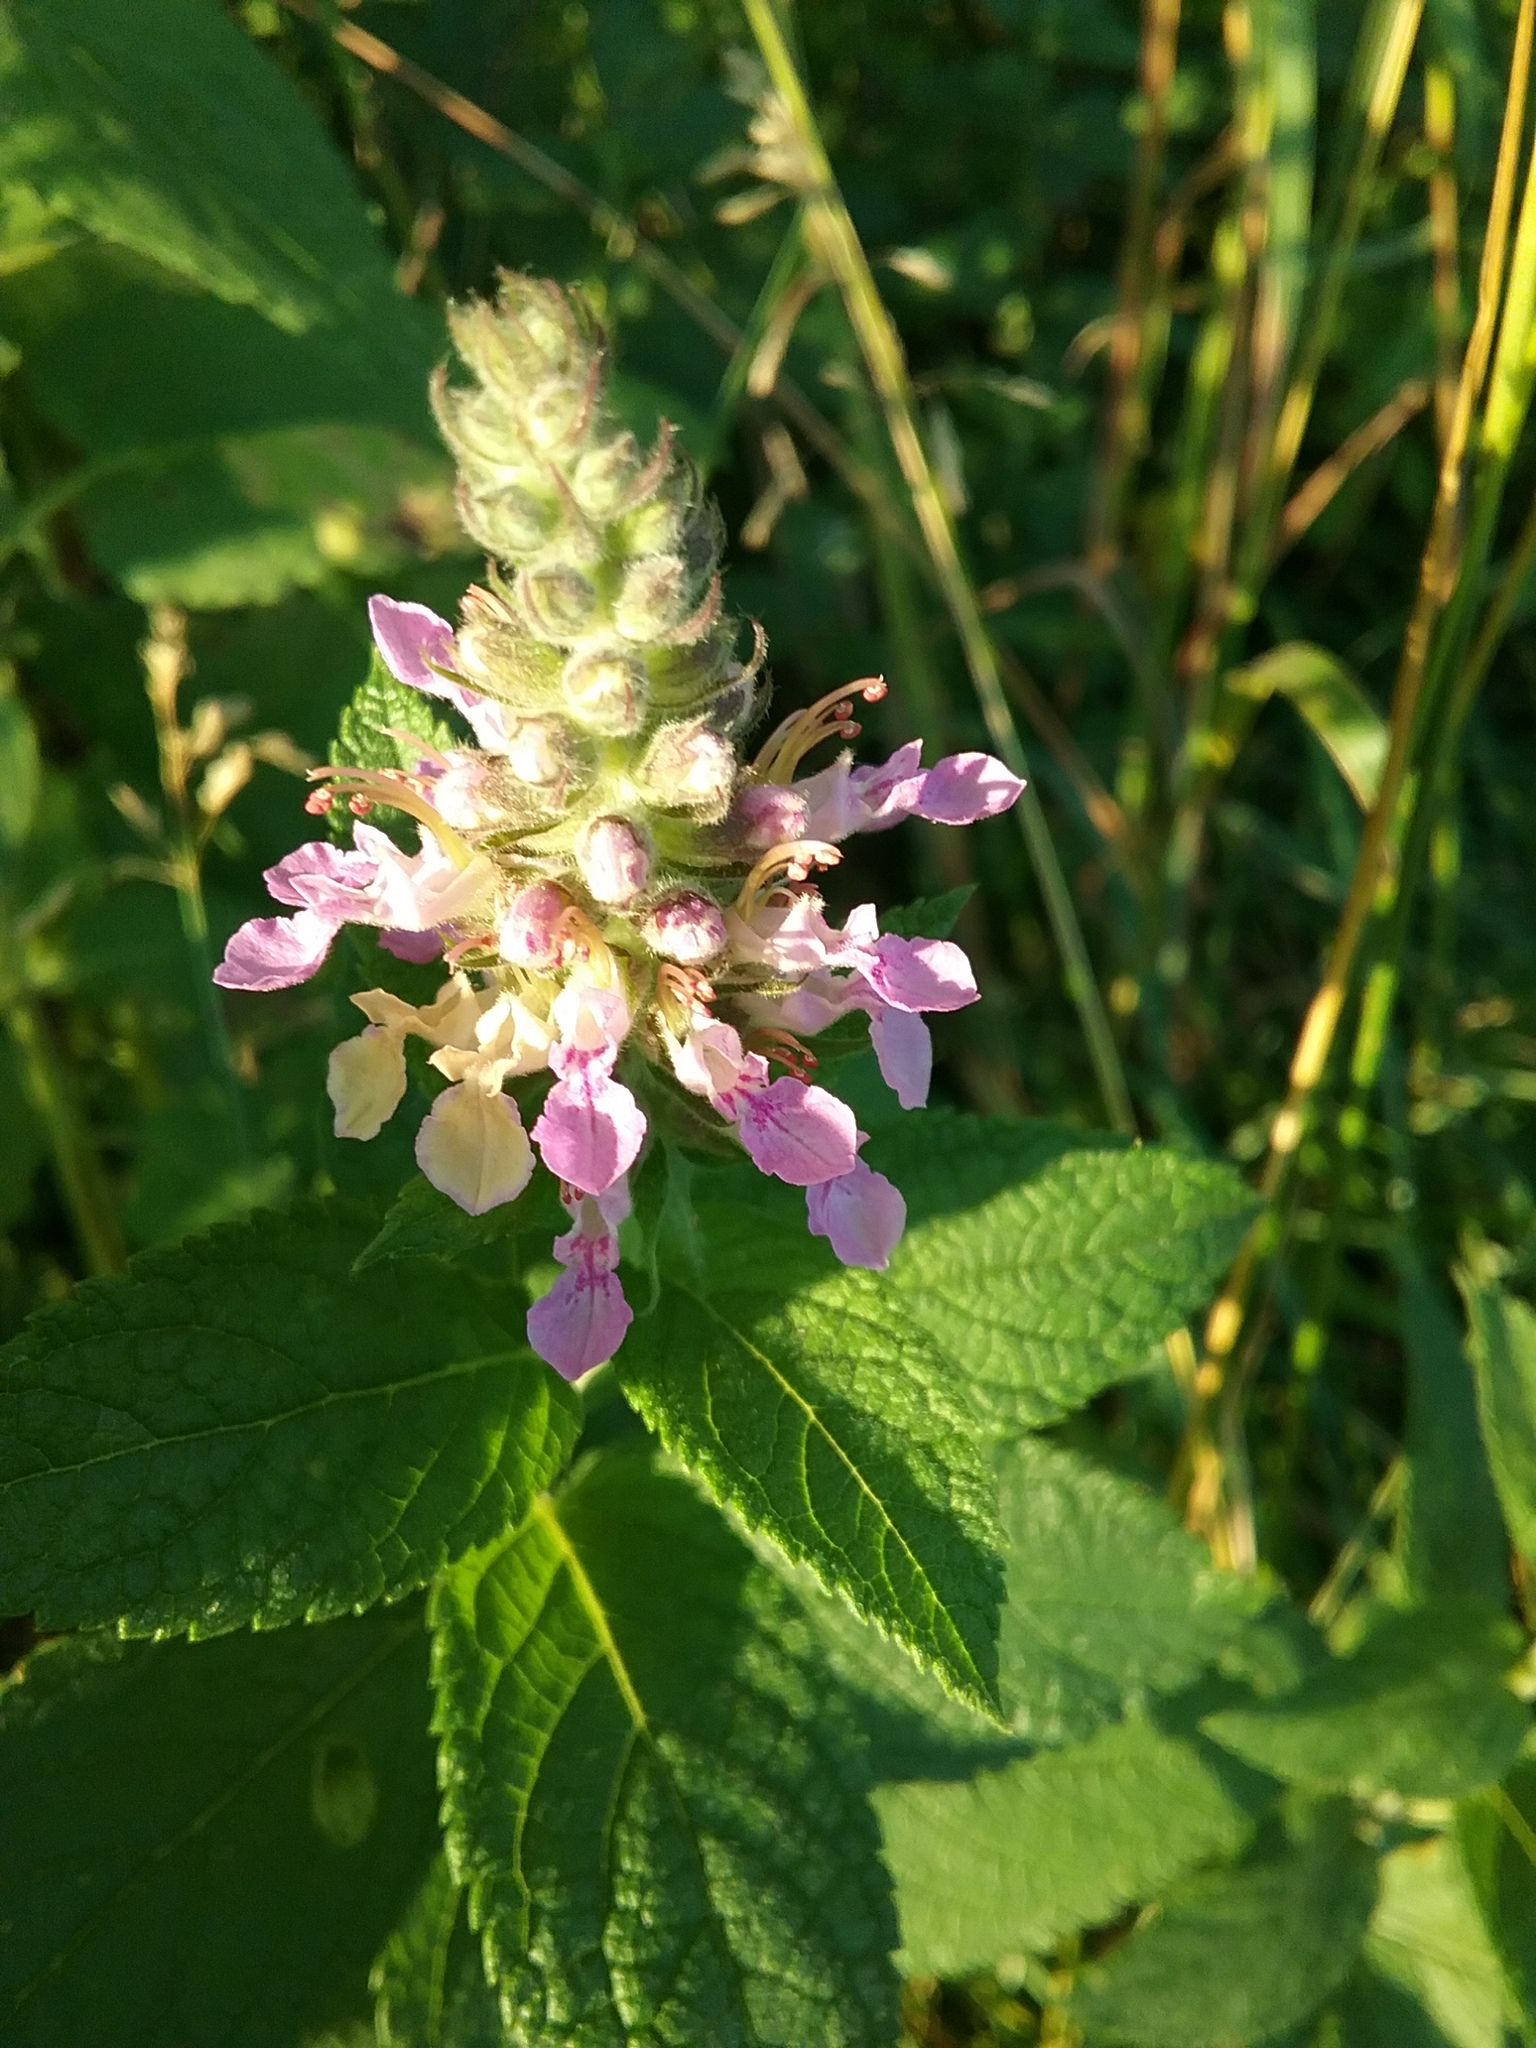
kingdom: Plantae
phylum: Tracheophyta
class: Magnoliopsida
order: Lamiales
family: Lamiaceae
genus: Teucrium
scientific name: Teucrium canadense
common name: American germander
